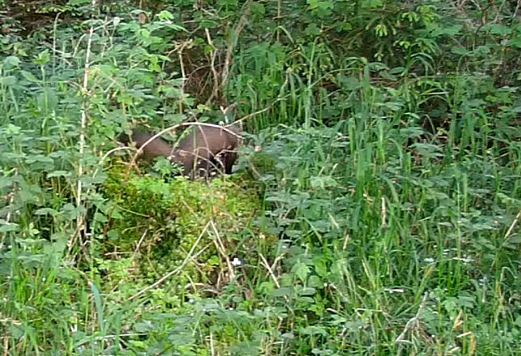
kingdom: Animalia
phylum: Chordata
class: Mammalia
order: Carnivora
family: Mustelidae
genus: Martes
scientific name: Martes martes
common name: European pine marten
